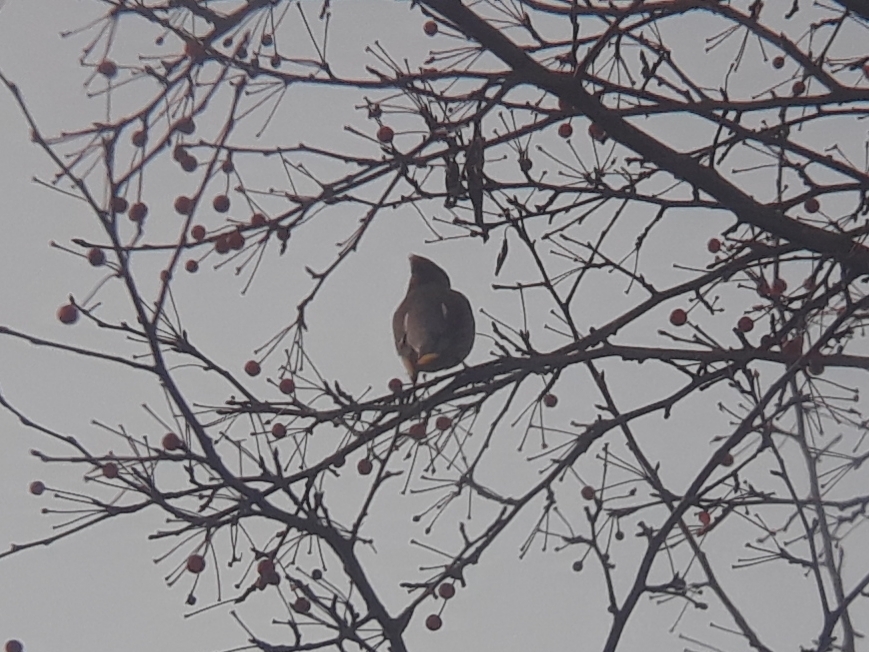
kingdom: Animalia
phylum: Chordata
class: Aves
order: Passeriformes
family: Bombycillidae
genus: Bombycilla
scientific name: Bombycilla cedrorum
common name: Cedar waxwing
